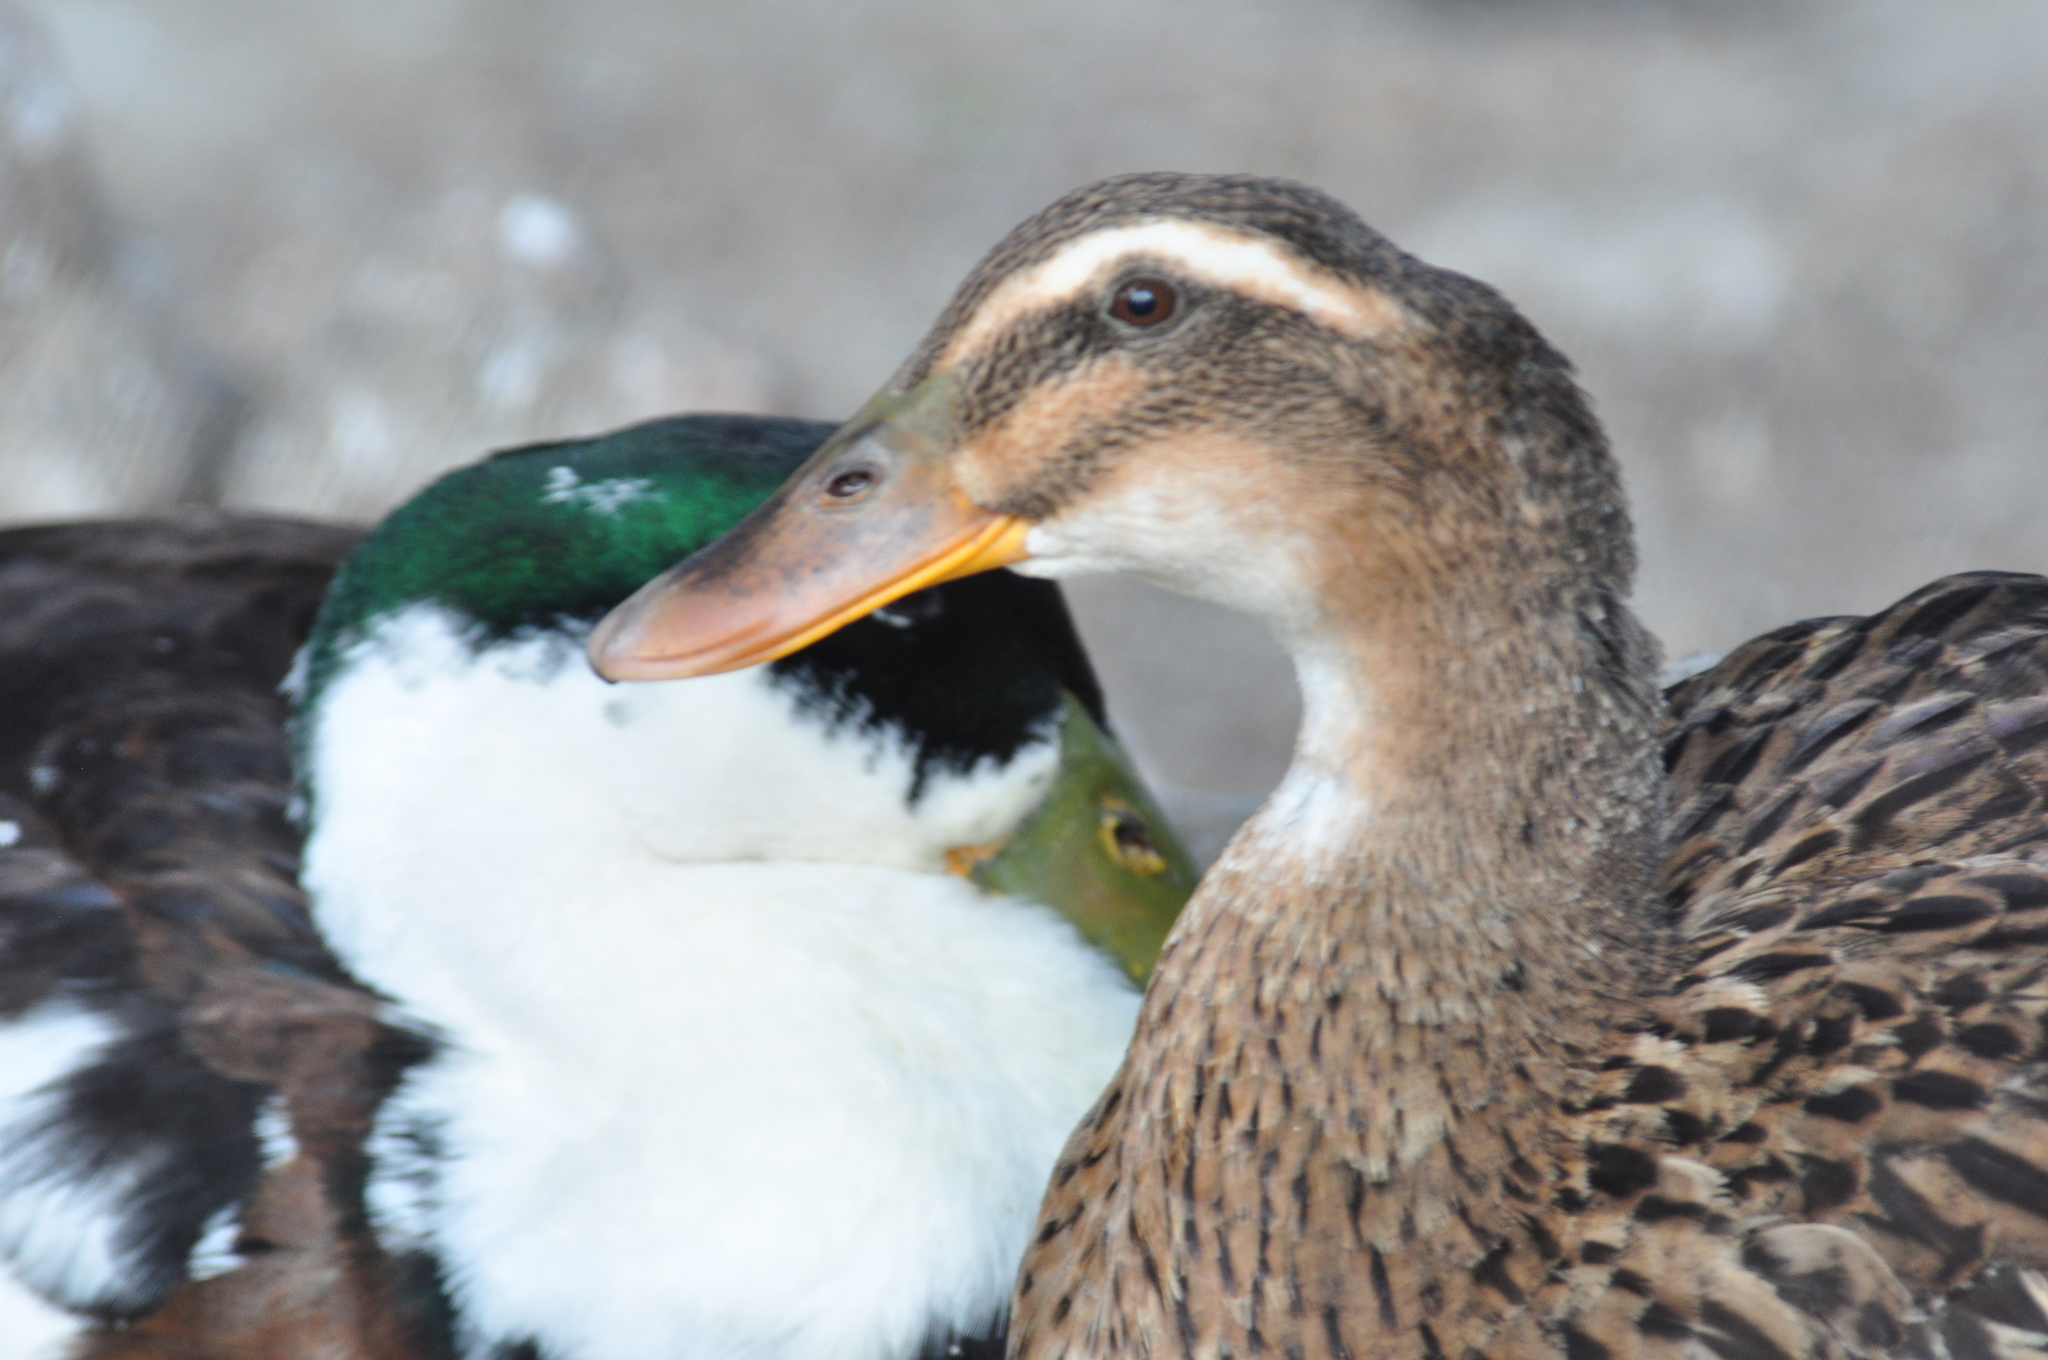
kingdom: Animalia
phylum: Chordata
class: Aves
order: Anseriformes
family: Anatidae
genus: Anas
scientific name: Anas platyrhynchos
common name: Mallard
